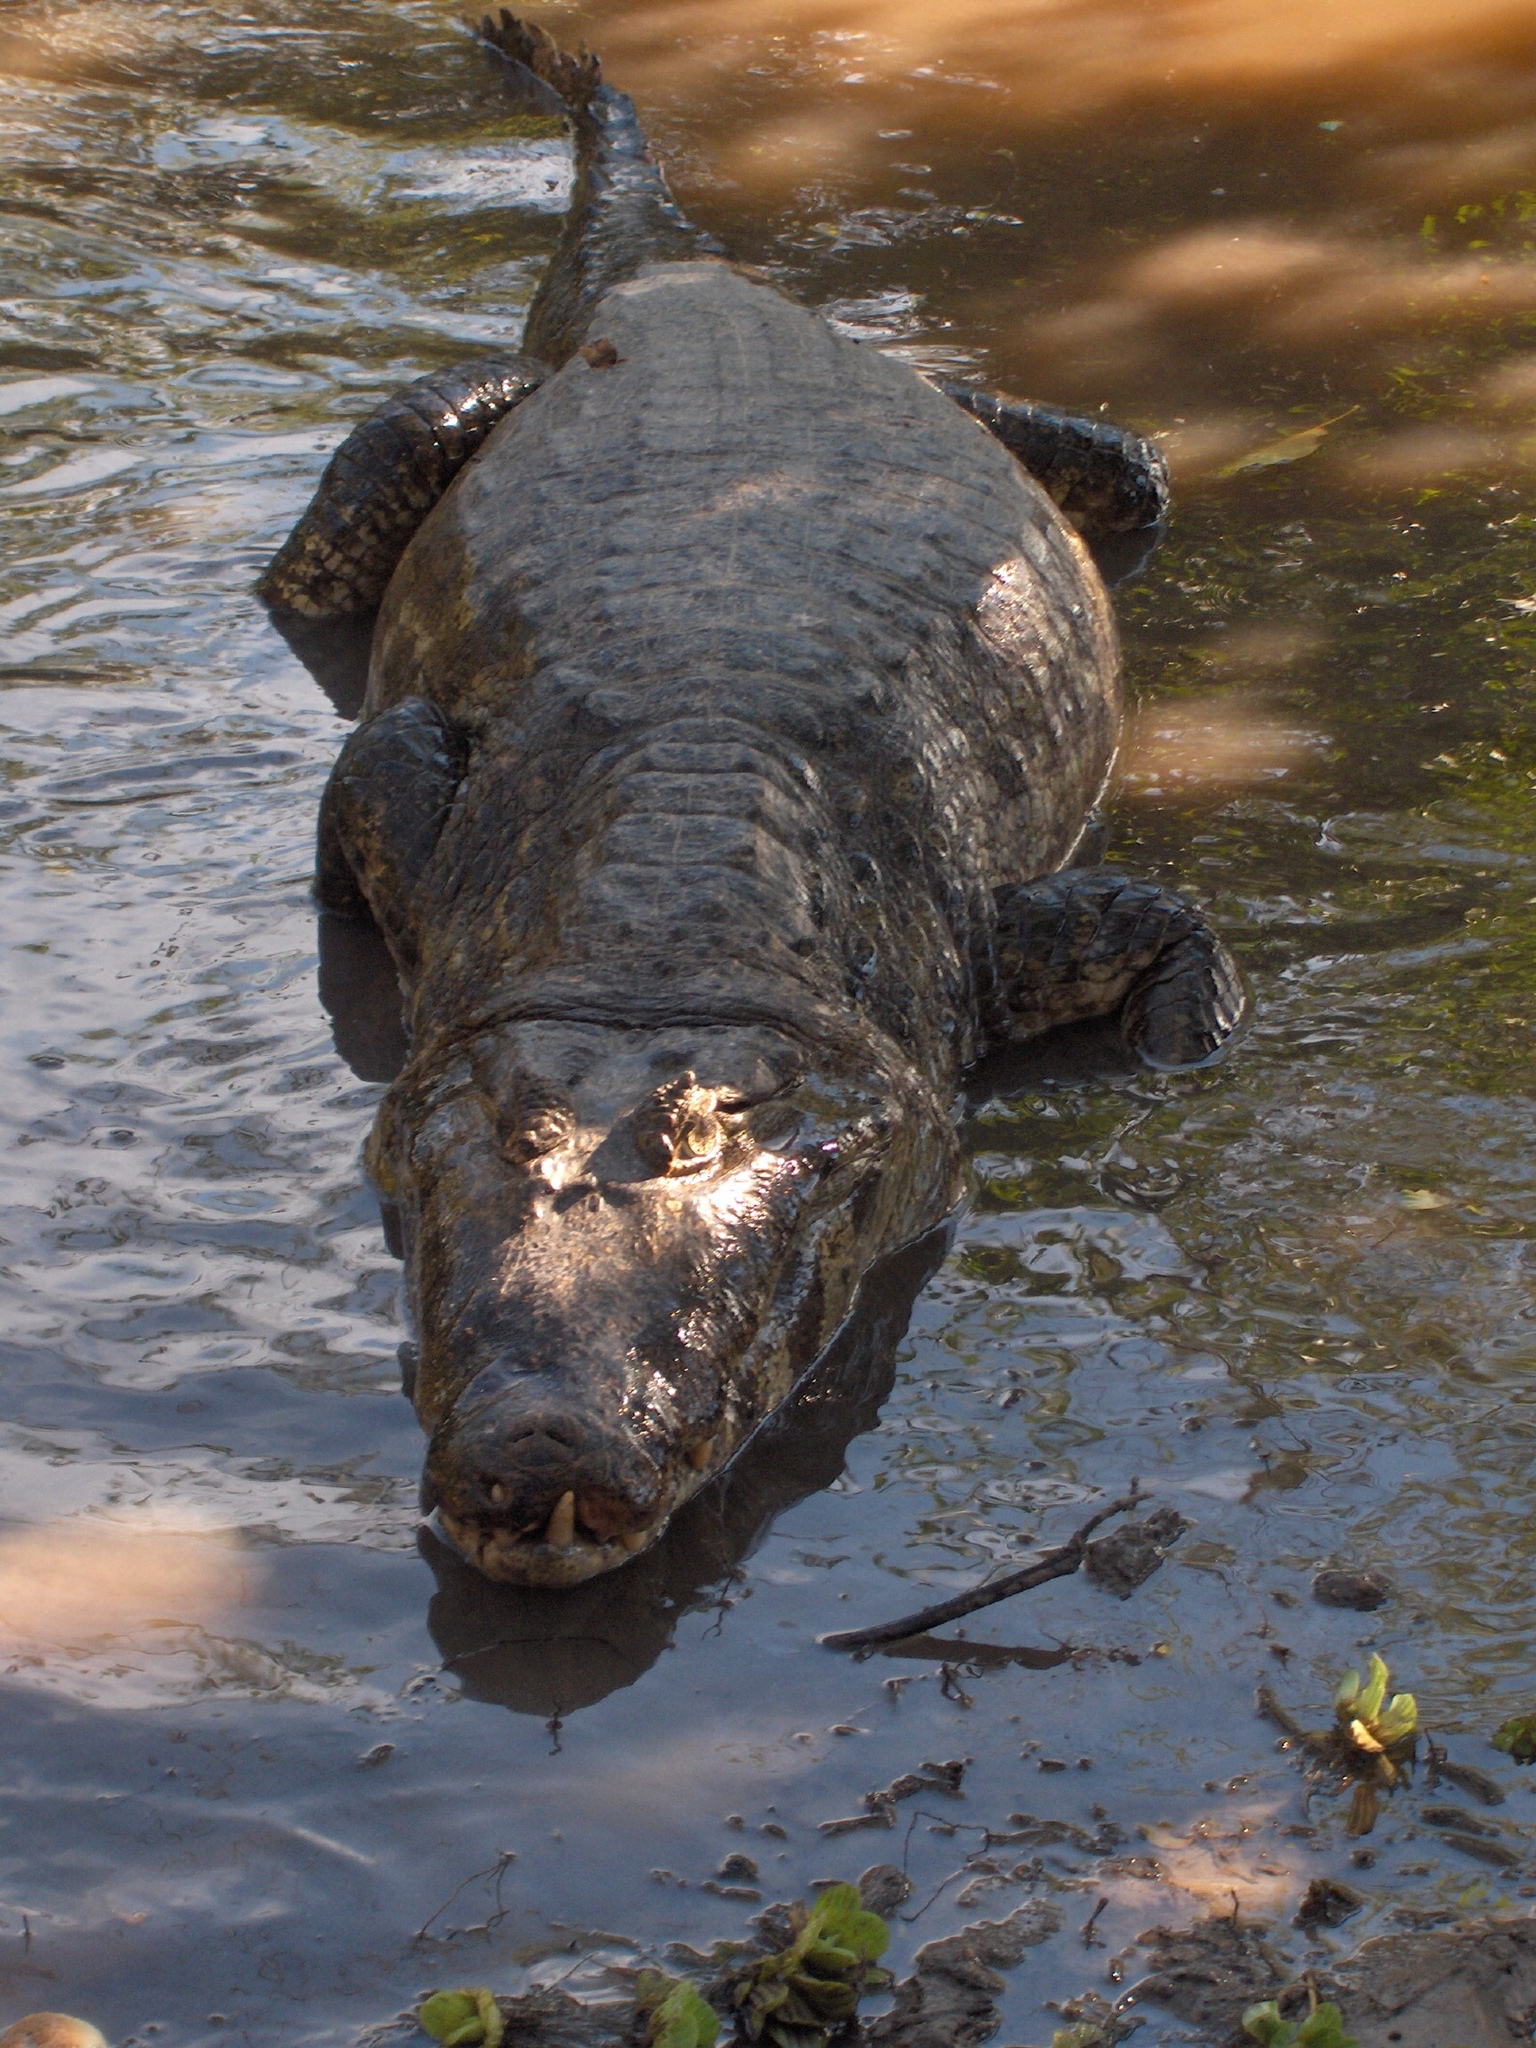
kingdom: Animalia
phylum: Chordata
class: Crocodylia
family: Alligatoridae
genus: Caiman
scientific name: Caiman yacare
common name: Yacare caiman
